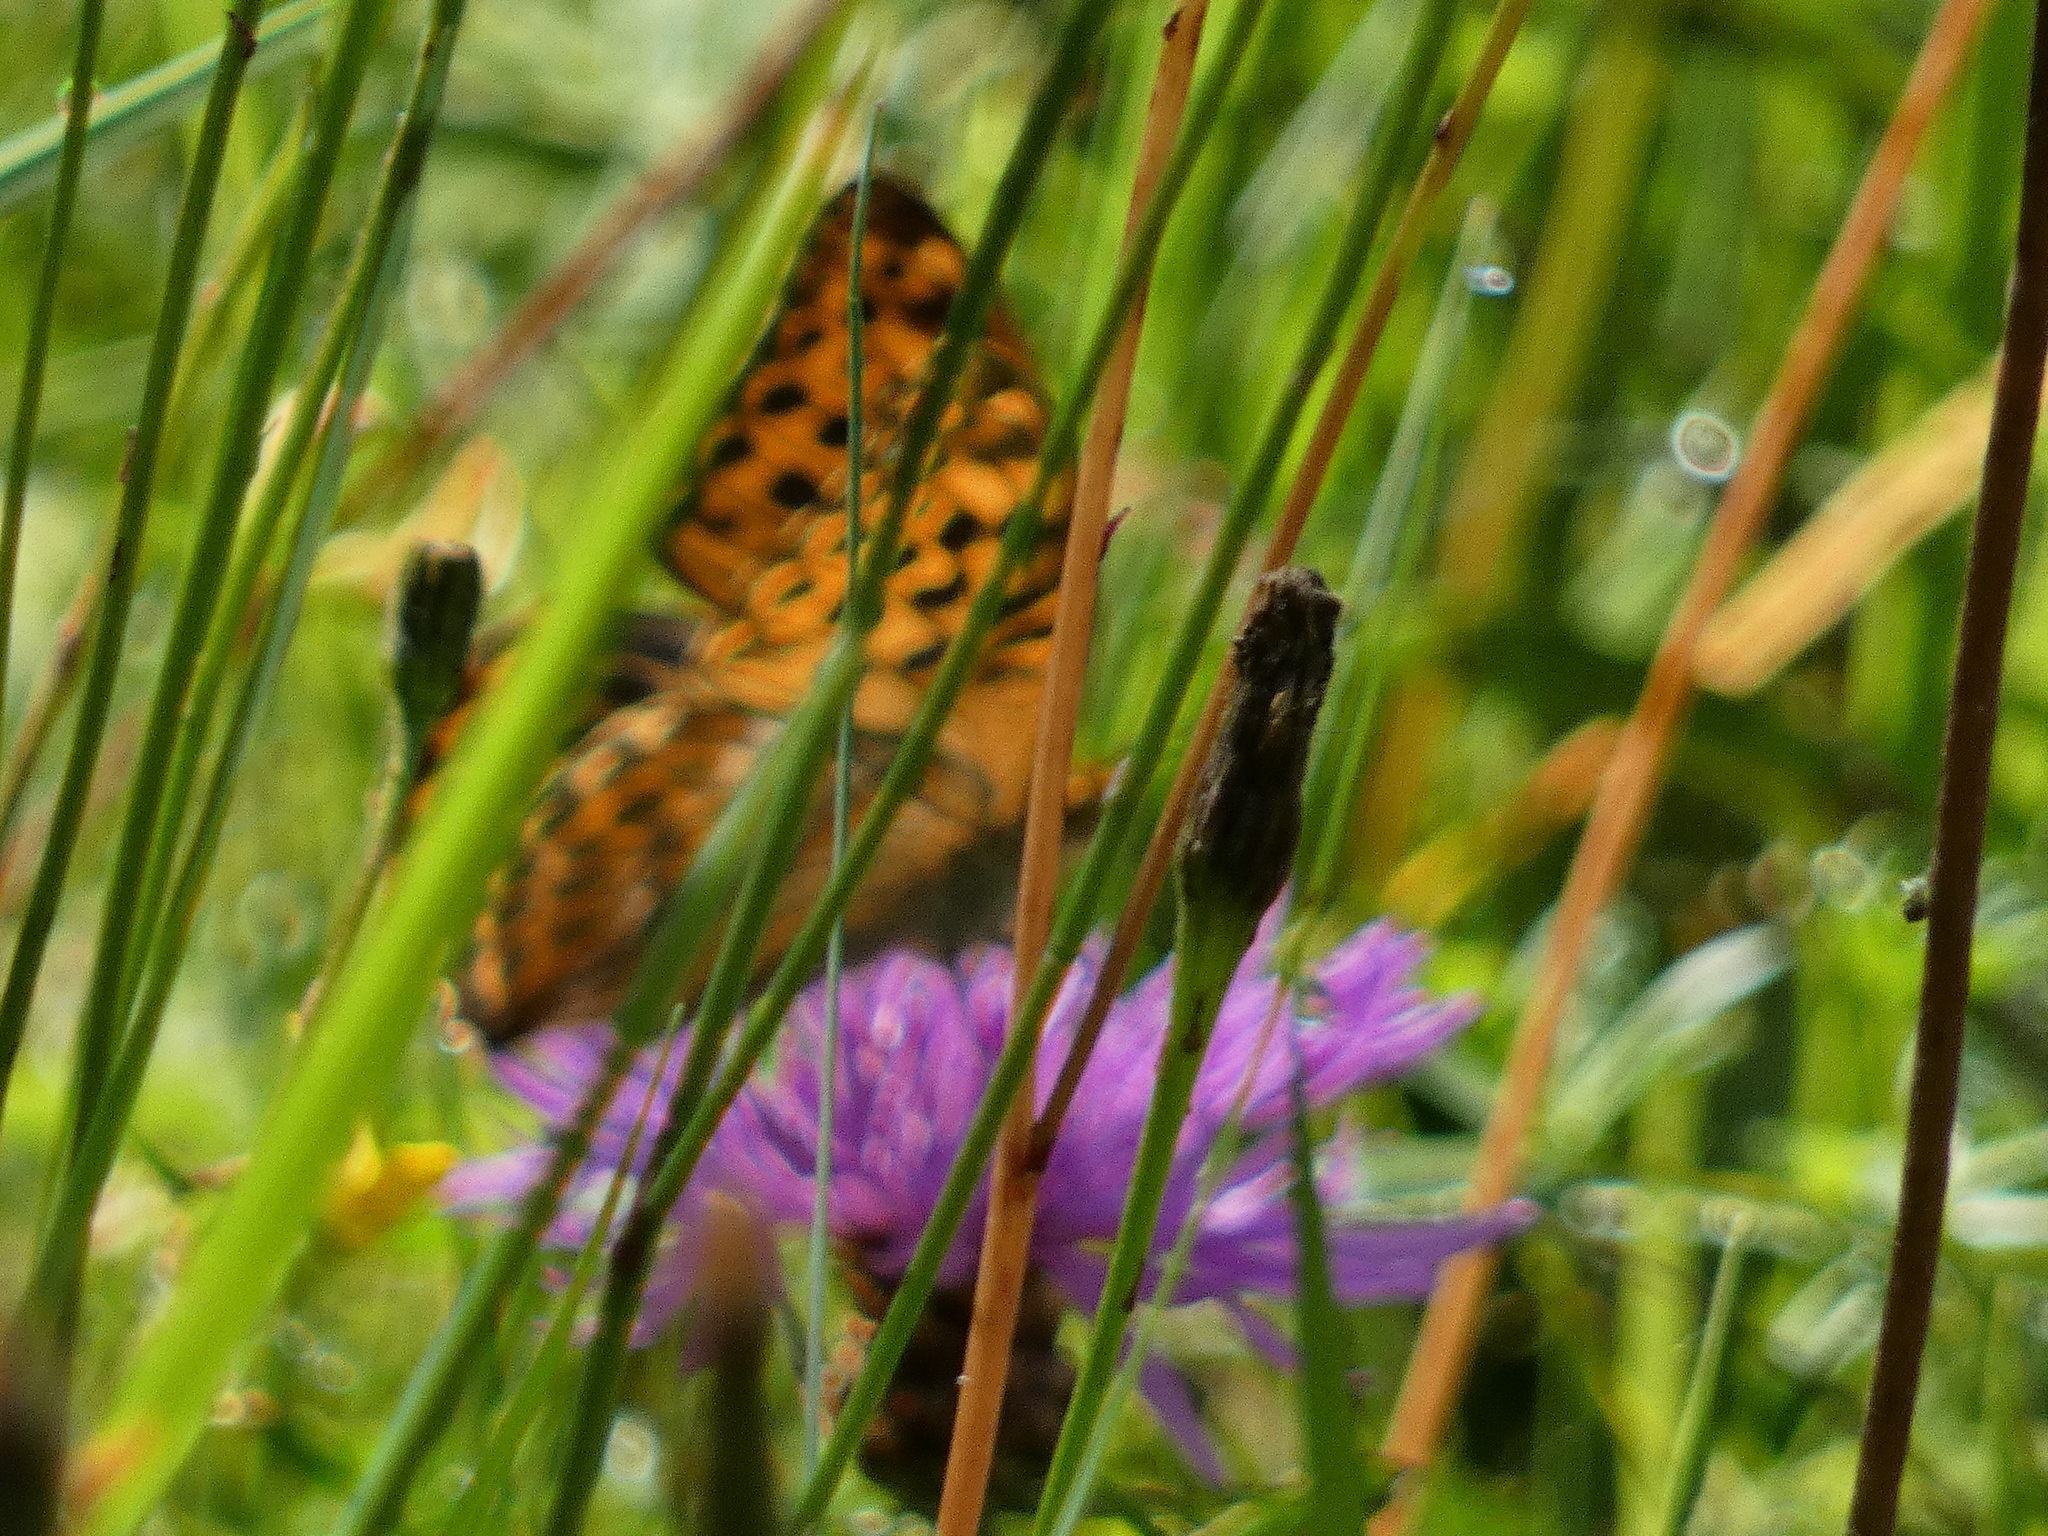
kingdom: Animalia
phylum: Arthropoda
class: Insecta
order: Lepidoptera
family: Nymphalidae
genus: Argynnis
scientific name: Argynnis paphia
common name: Silver-washed fritillary
